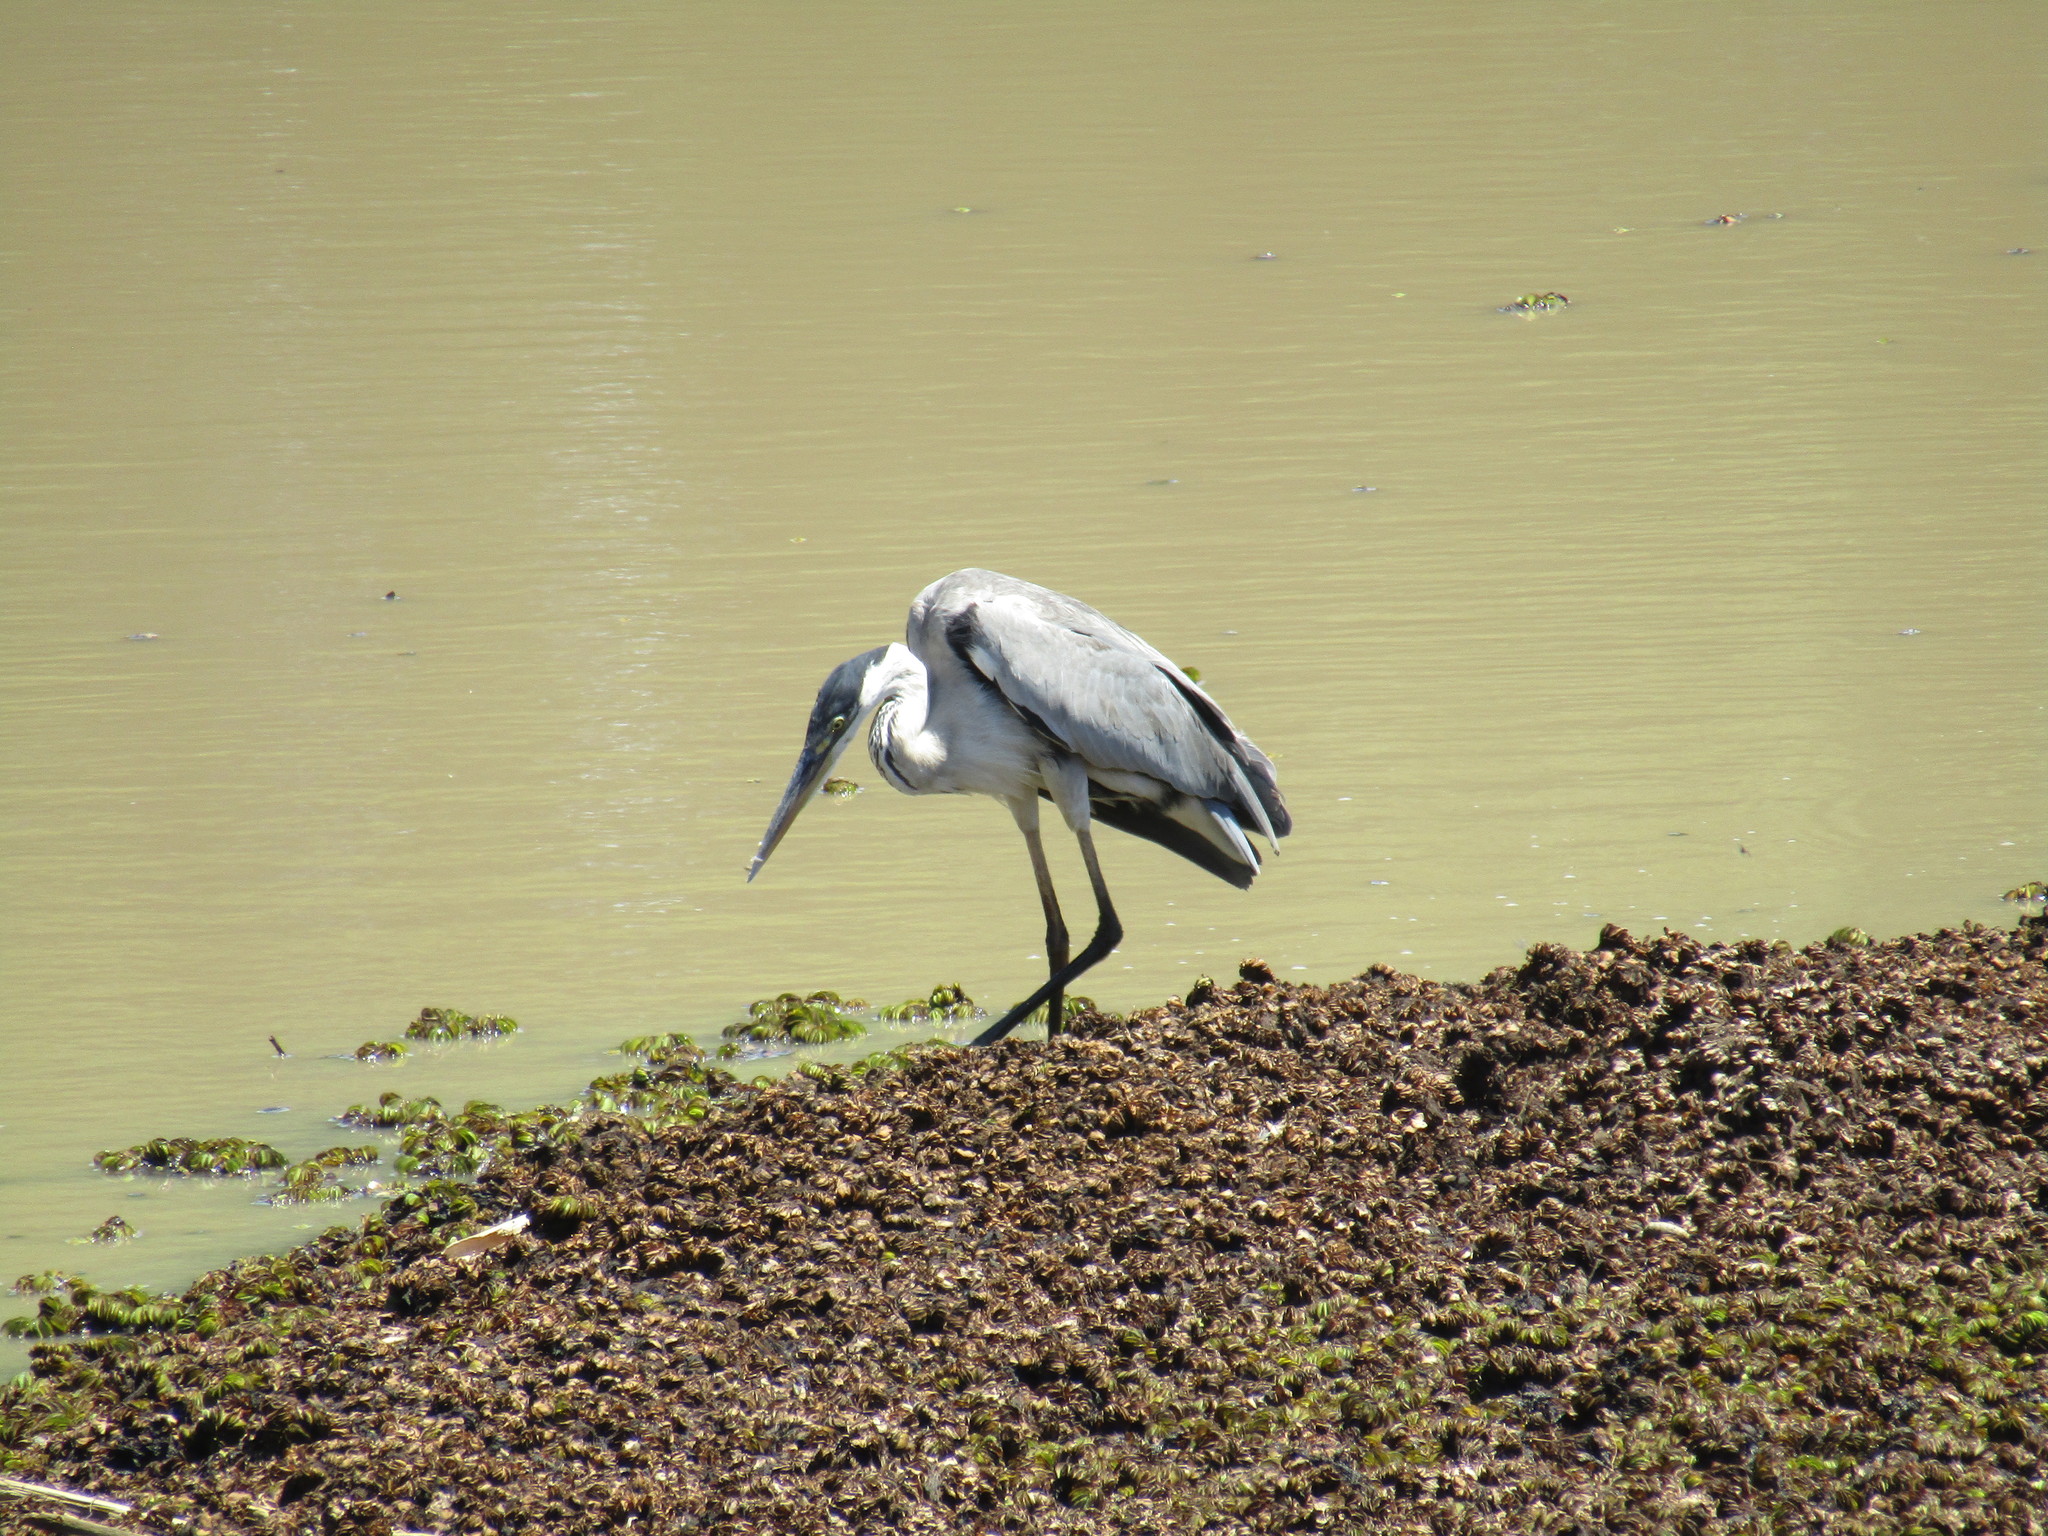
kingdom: Animalia
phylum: Chordata
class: Aves
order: Pelecaniformes
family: Ardeidae
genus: Ardea
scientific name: Ardea cocoi
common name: Cocoi heron
